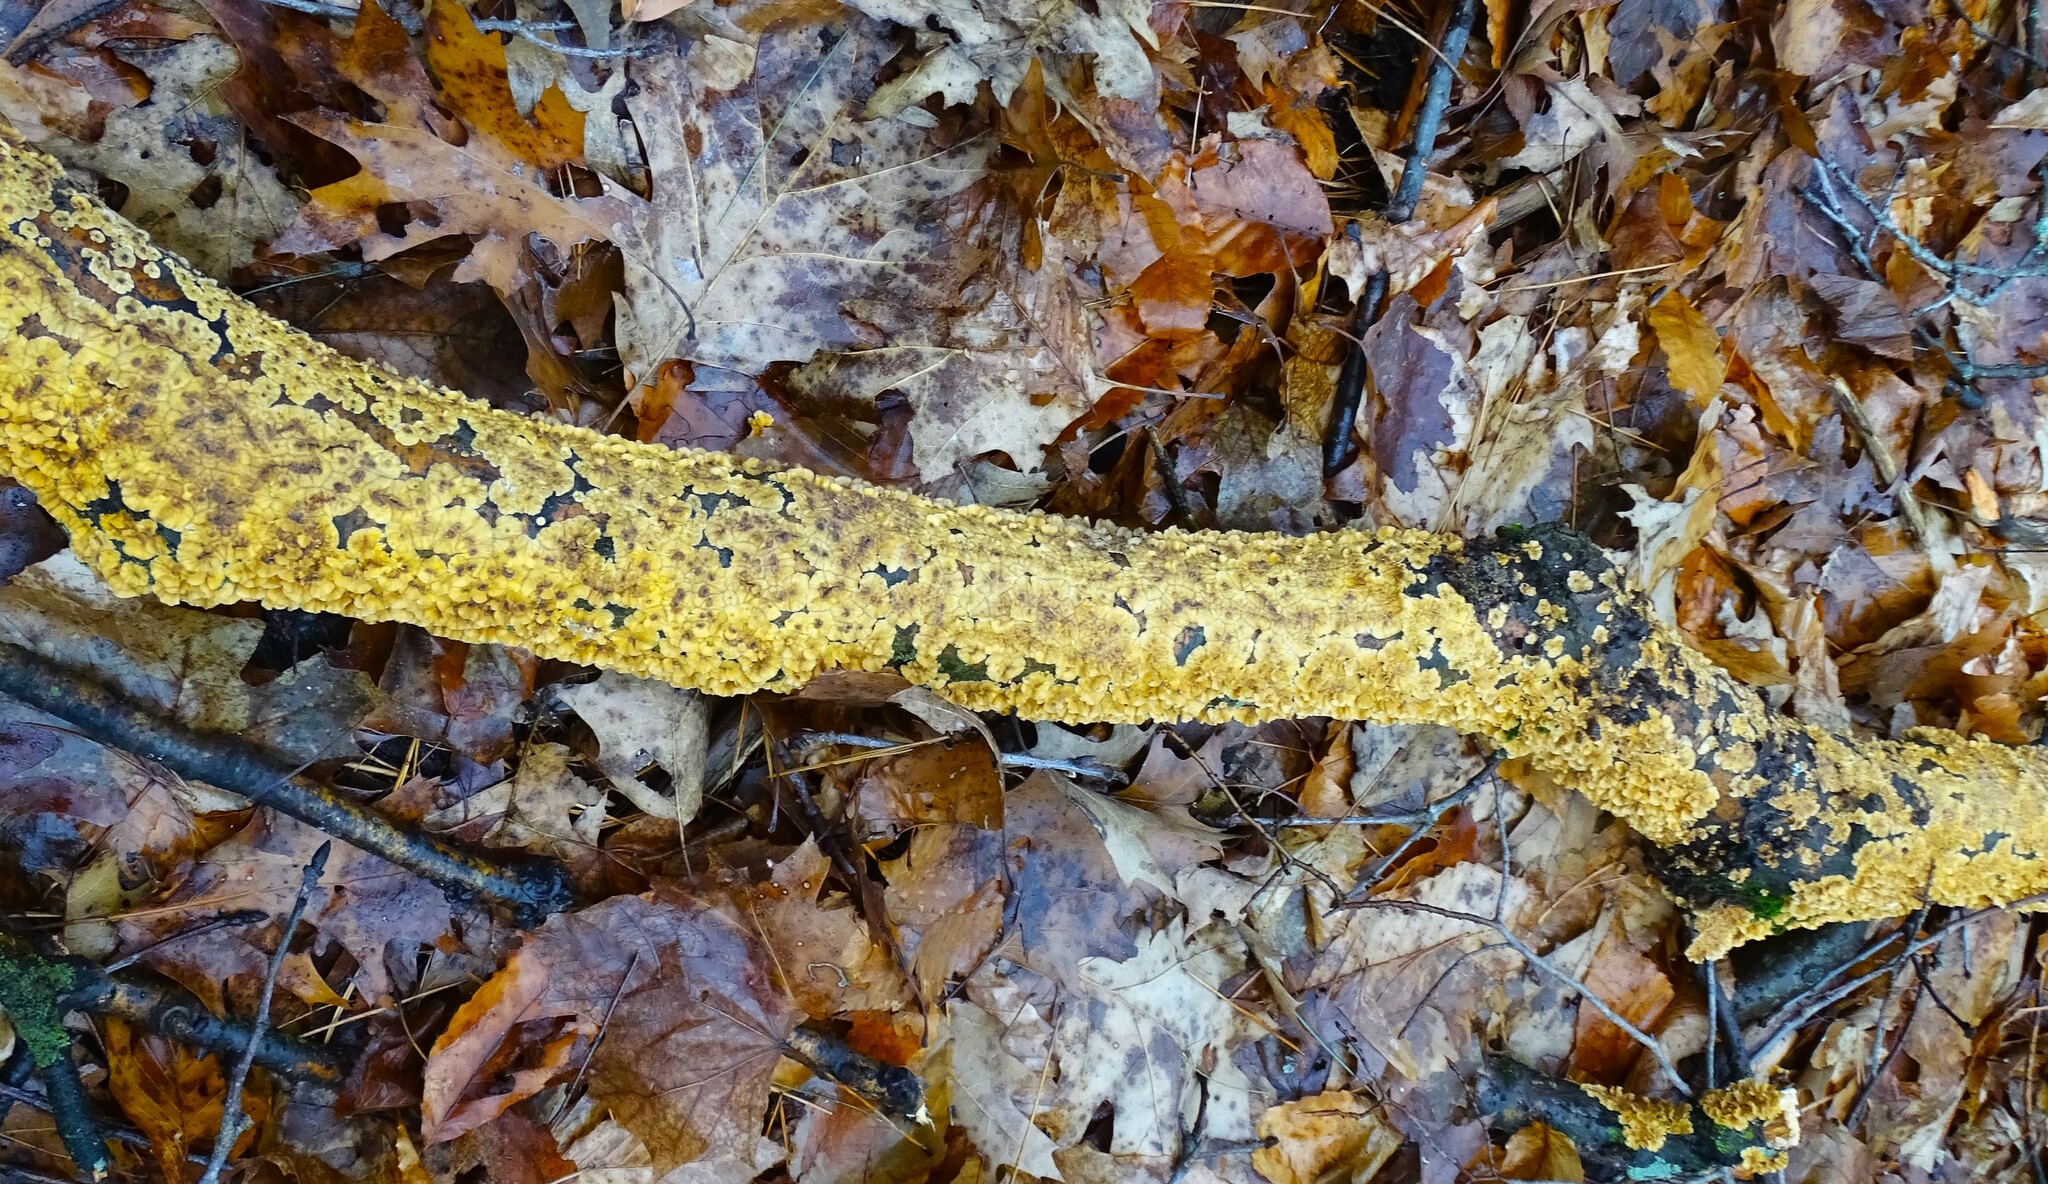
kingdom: Fungi
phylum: Basidiomycota
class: Agaricomycetes
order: Russulales
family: Stereaceae
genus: Stereum
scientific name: Stereum complicatum
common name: Crowded parchment
